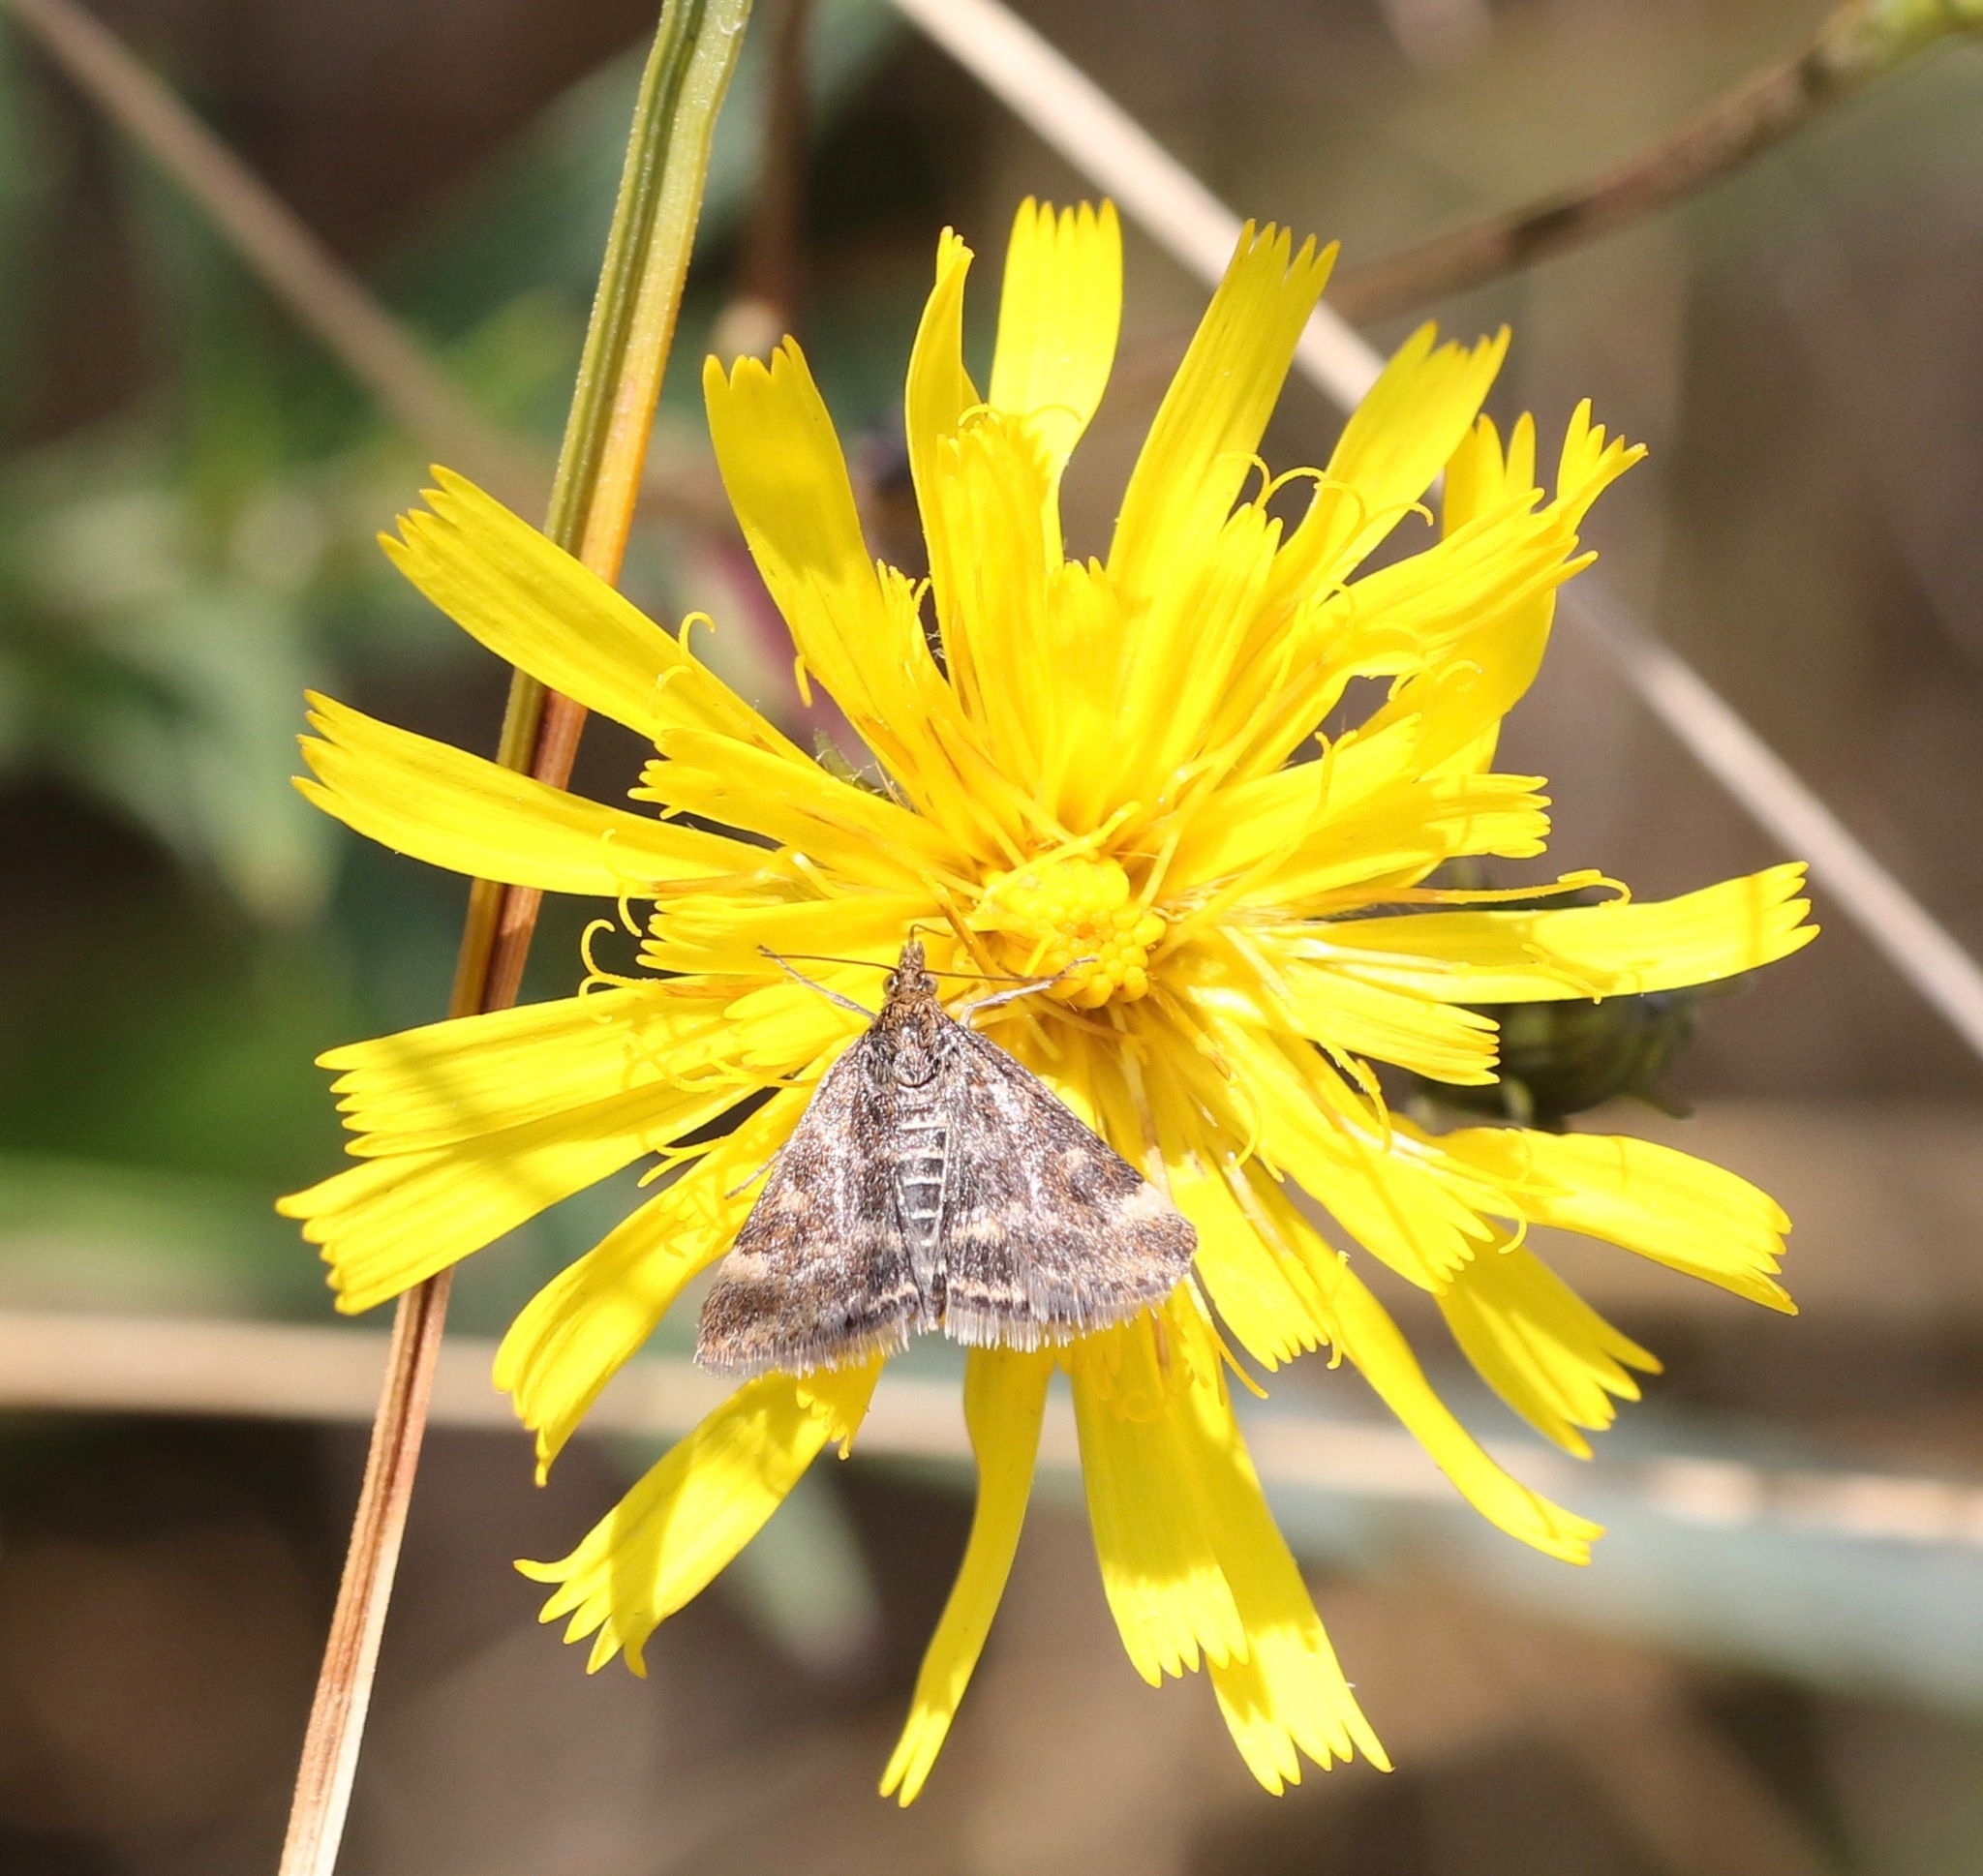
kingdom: Animalia
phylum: Arthropoda
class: Insecta
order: Lepidoptera
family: Crambidae
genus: Pyrausta
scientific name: Pyrausta despicata
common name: Straw-barred pearl
